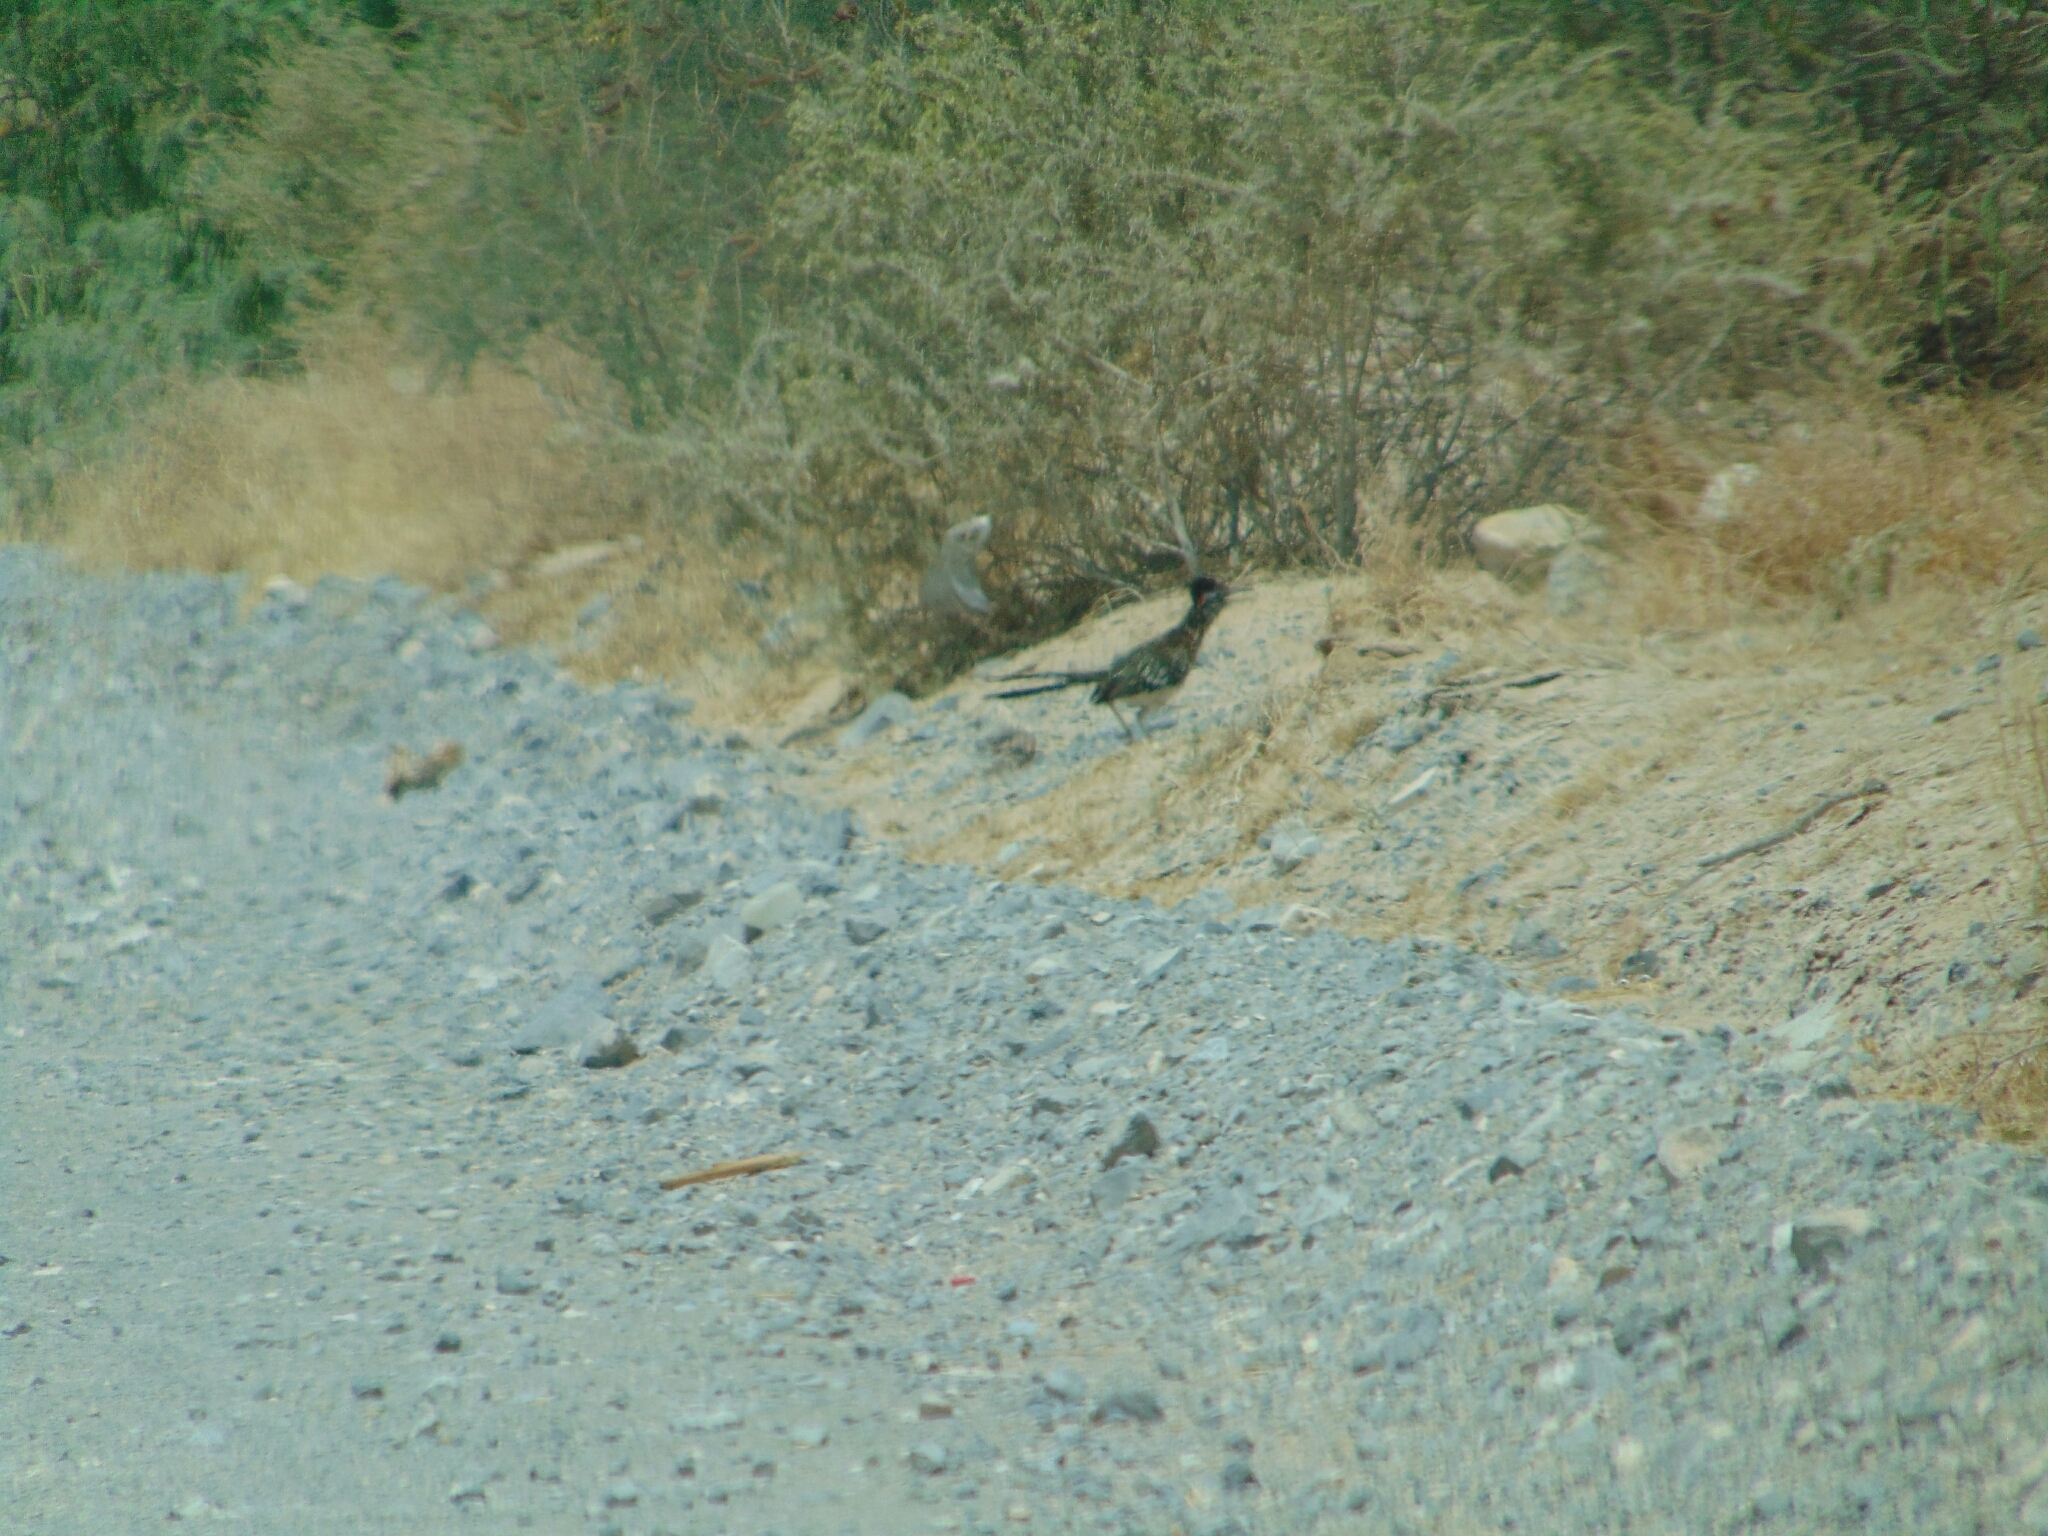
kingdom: Animalia
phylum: Chordata
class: Aves
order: Cuculiformes
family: Cuculidae
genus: Geococcyx
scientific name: Geococcyx californianus
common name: Greater roadrunner
